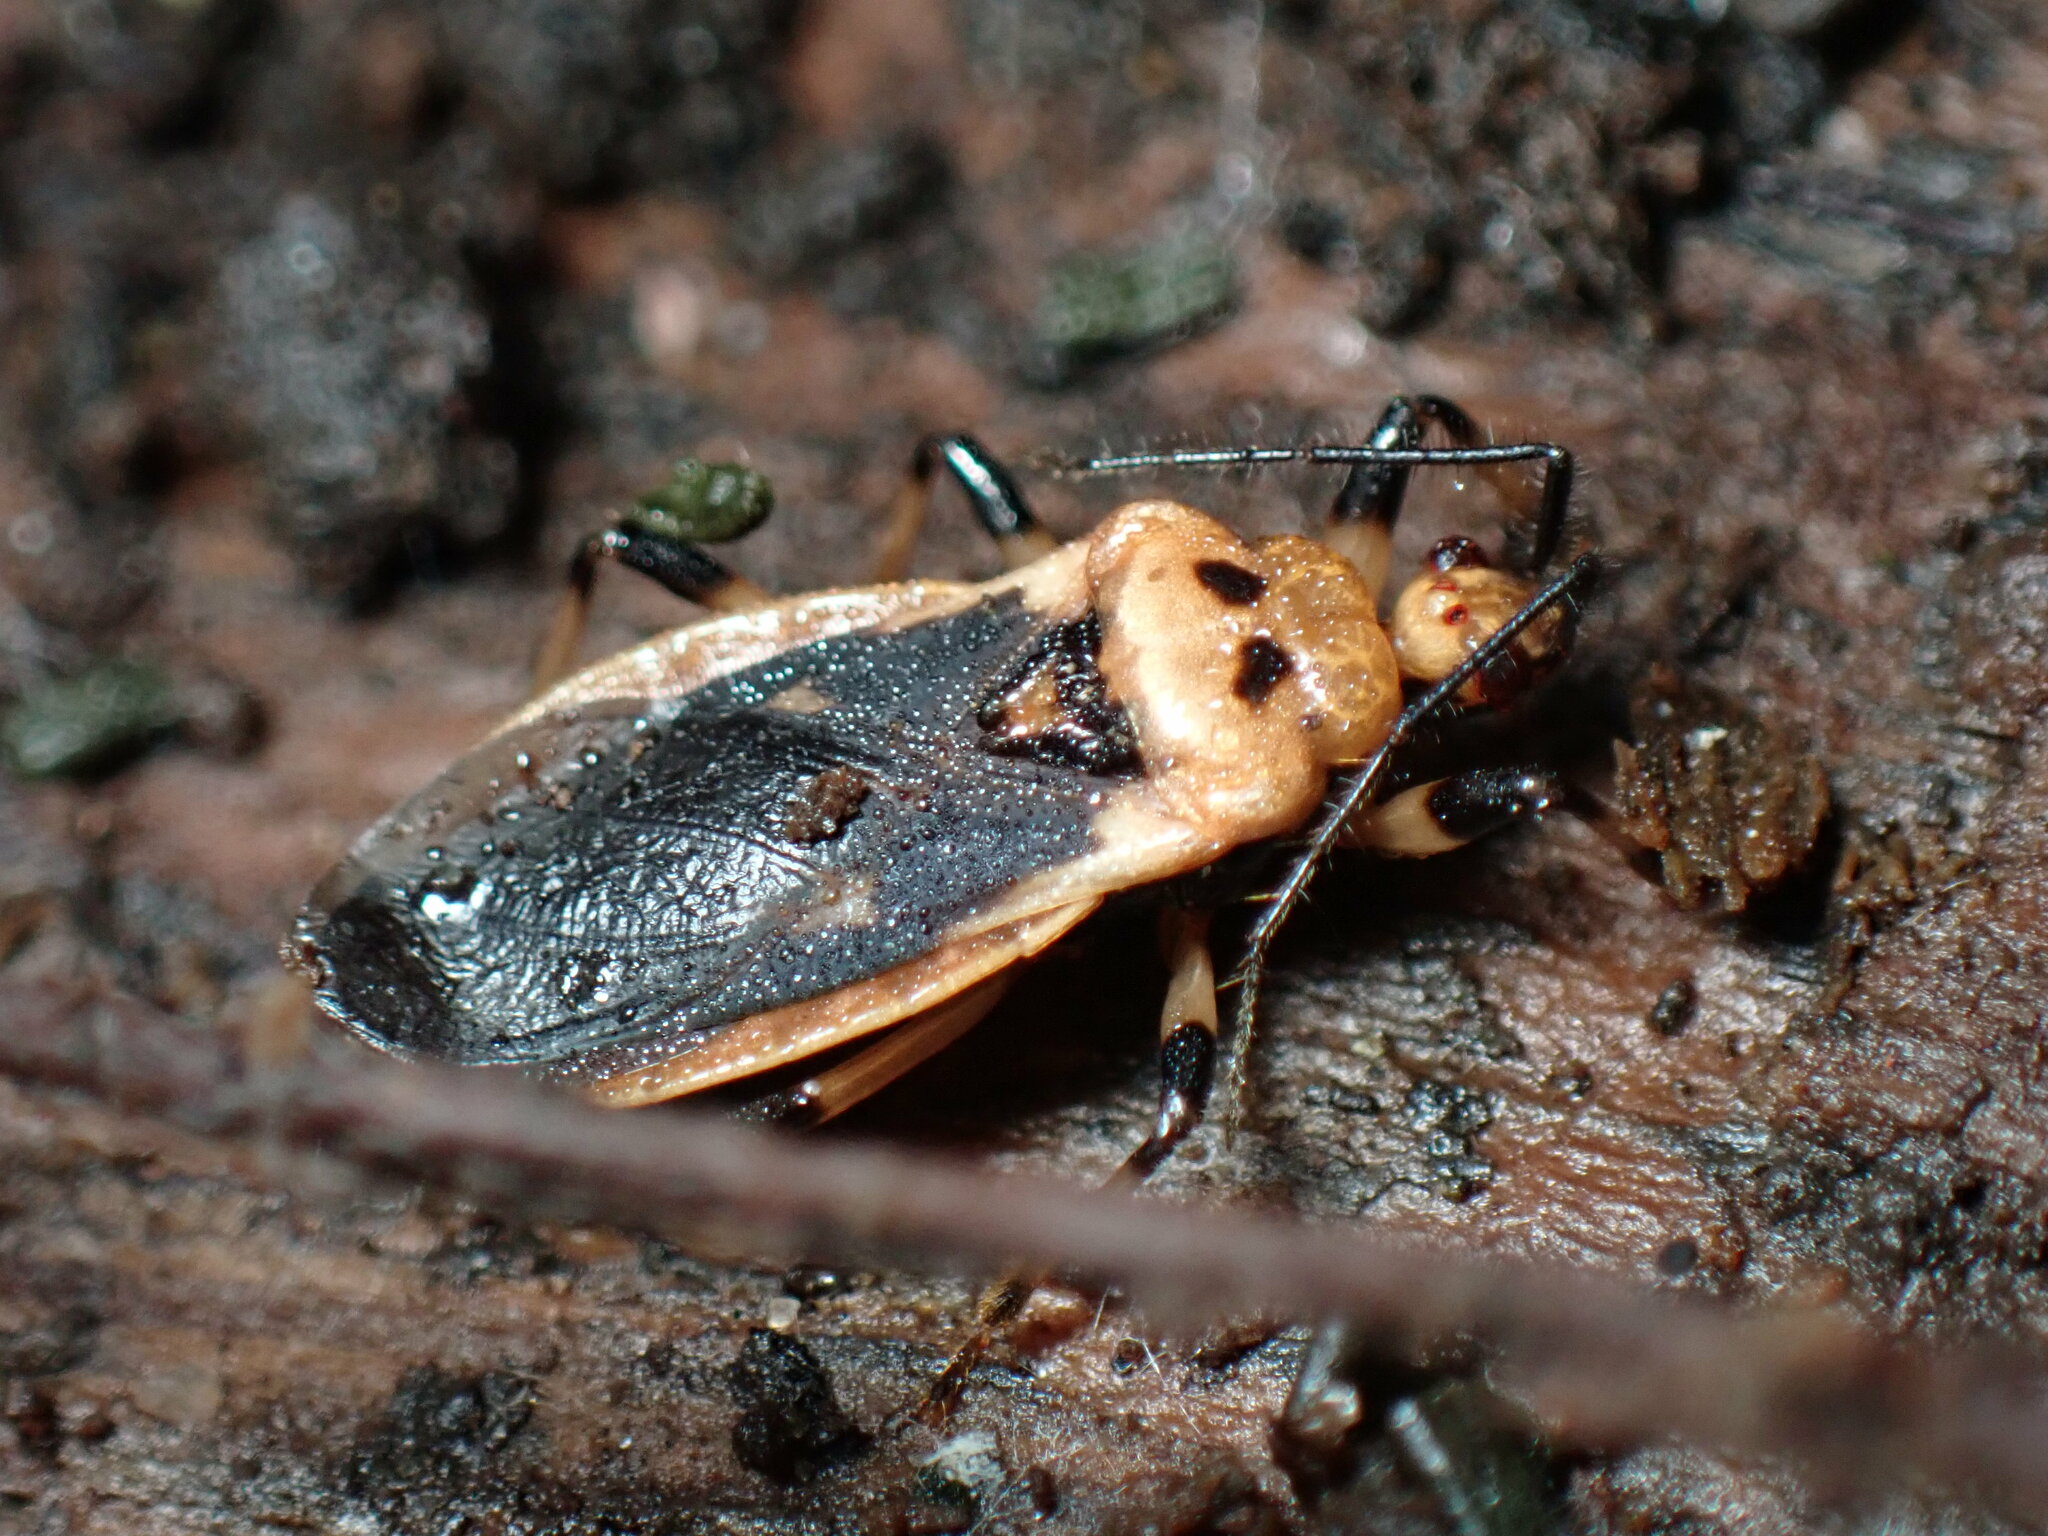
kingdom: Animalia
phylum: Arthropoda
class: Insecta
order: Hemiptera
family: Reduviidae
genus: Rhiginia
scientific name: Rhiginia cruciata
